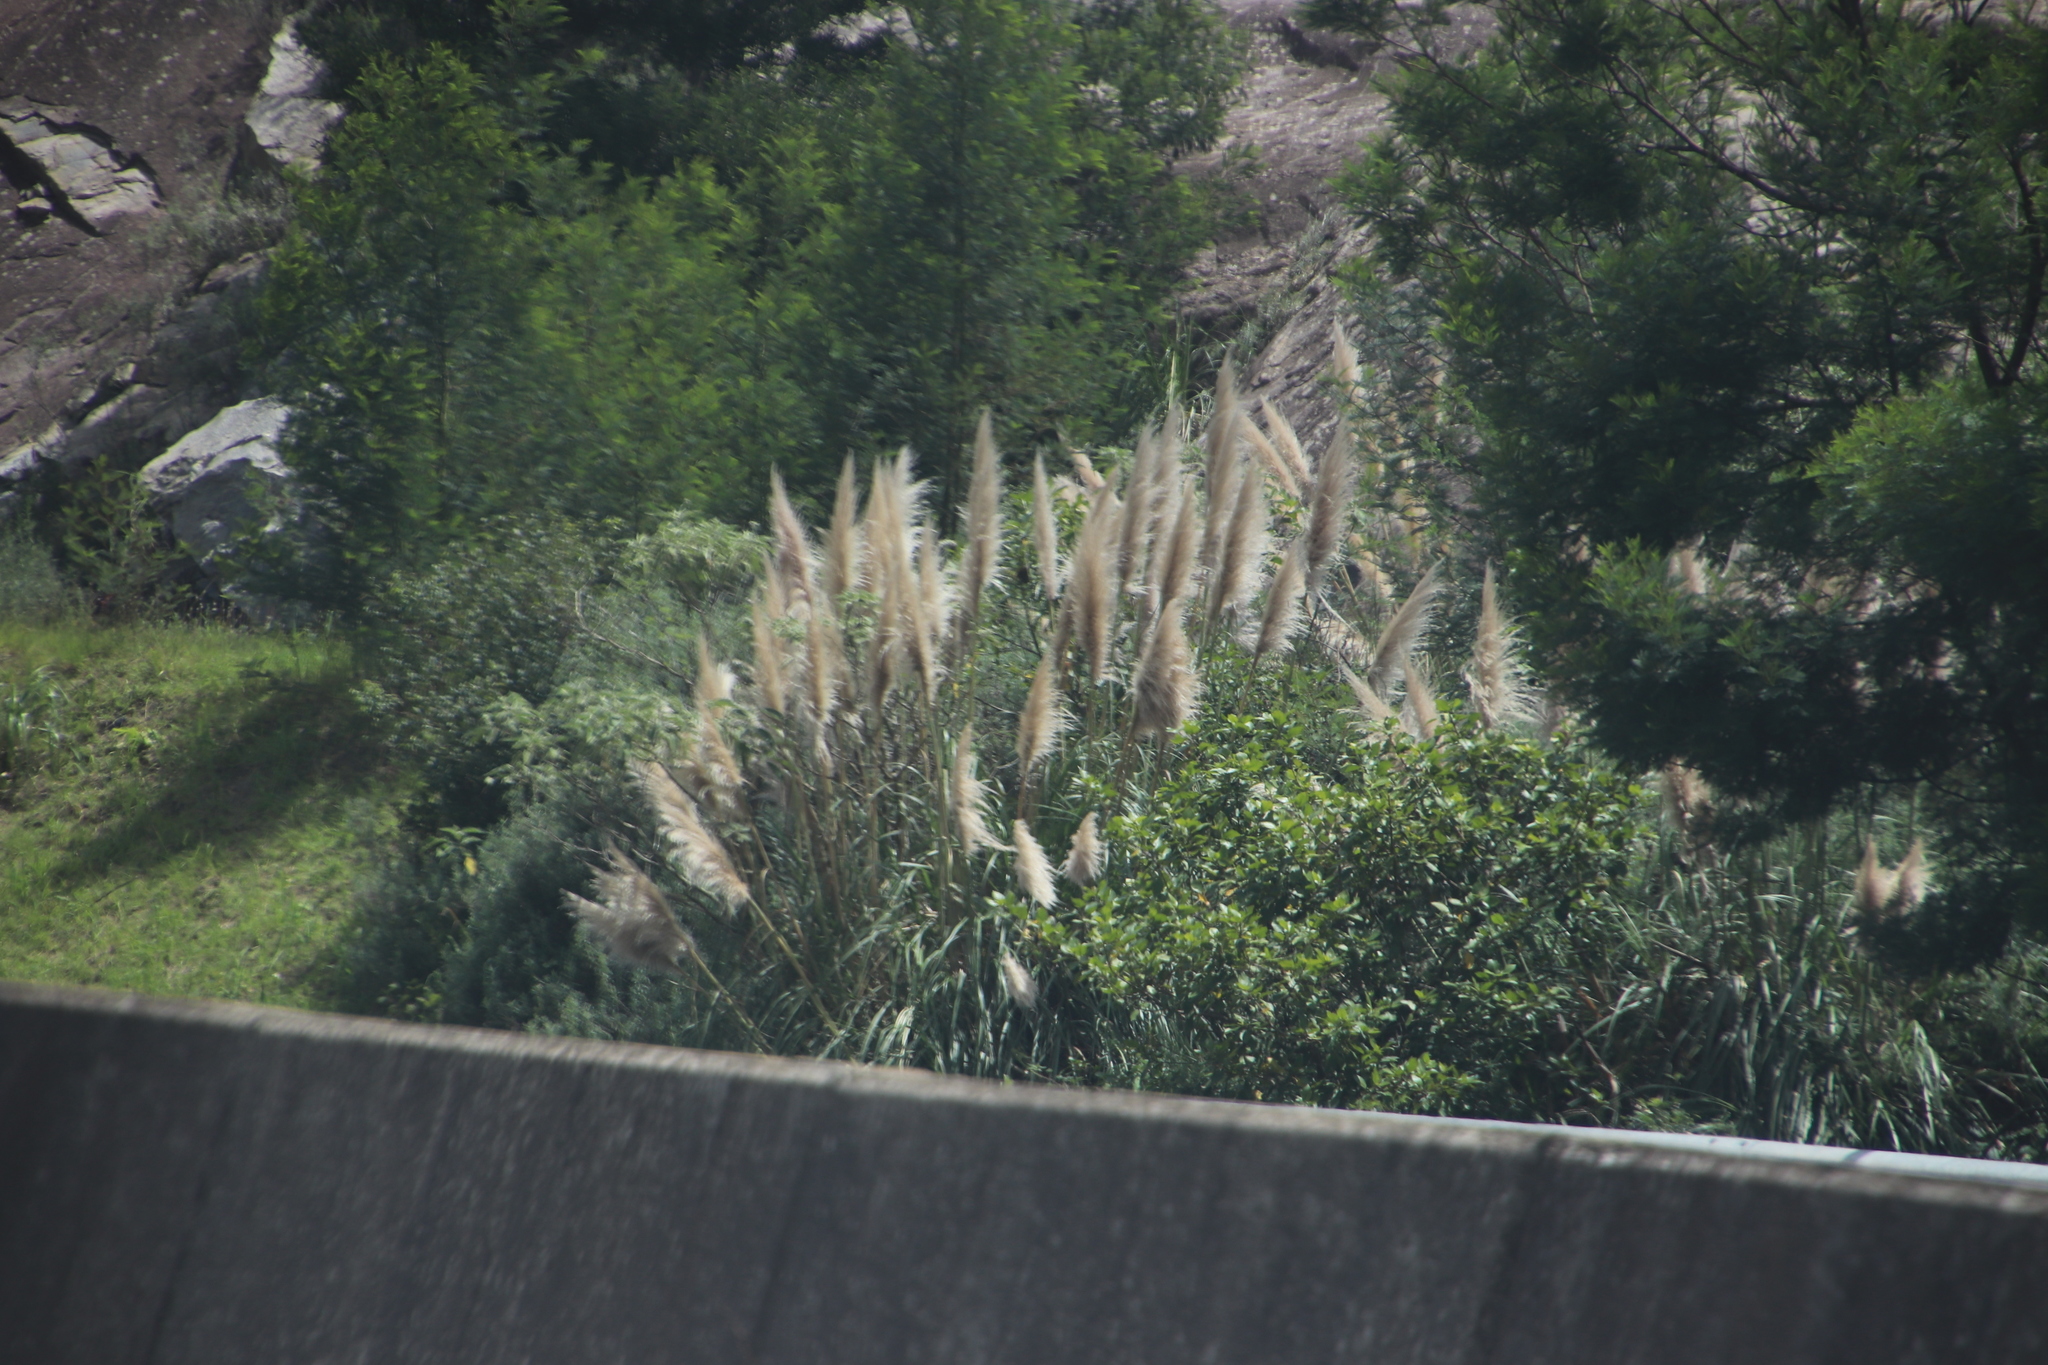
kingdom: Plantae
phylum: Tracheophyta
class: Liliopsida
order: Poales
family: Poaceae
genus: Cortaderia
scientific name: Cortaderia selloana
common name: Uruguayan pampas grass
